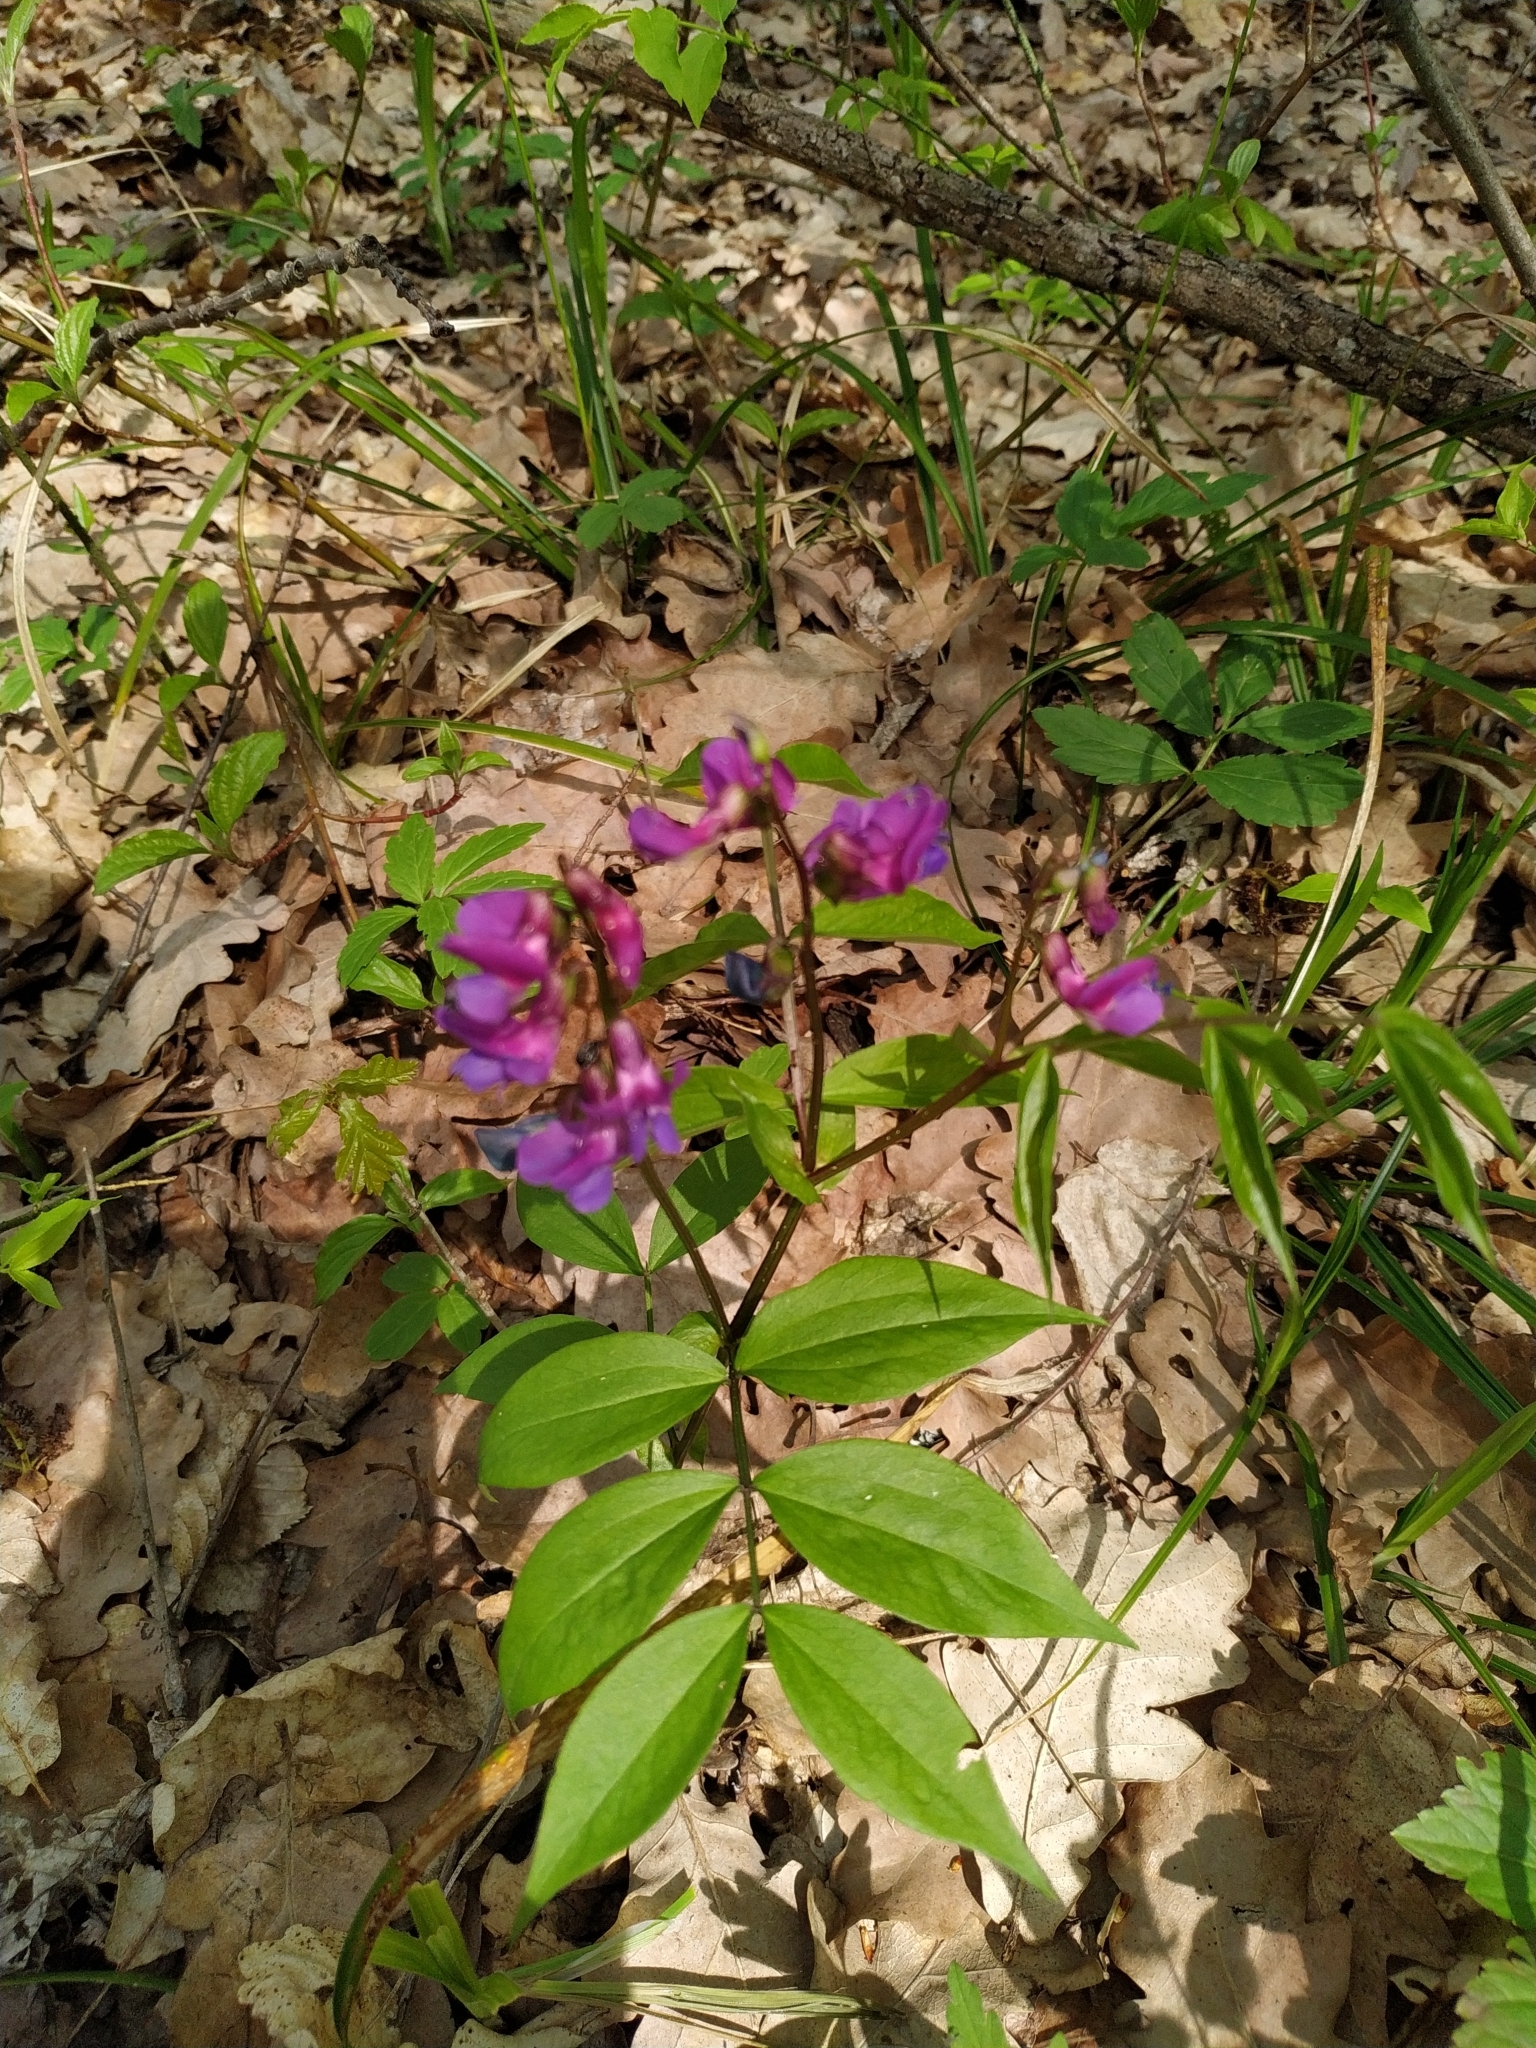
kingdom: Plantae
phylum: Tracheophyta
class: Magnoliopsida
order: Fabales
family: Fabaceae
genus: Lathyrus
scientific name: Lathyrus vernus
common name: Spring pea
